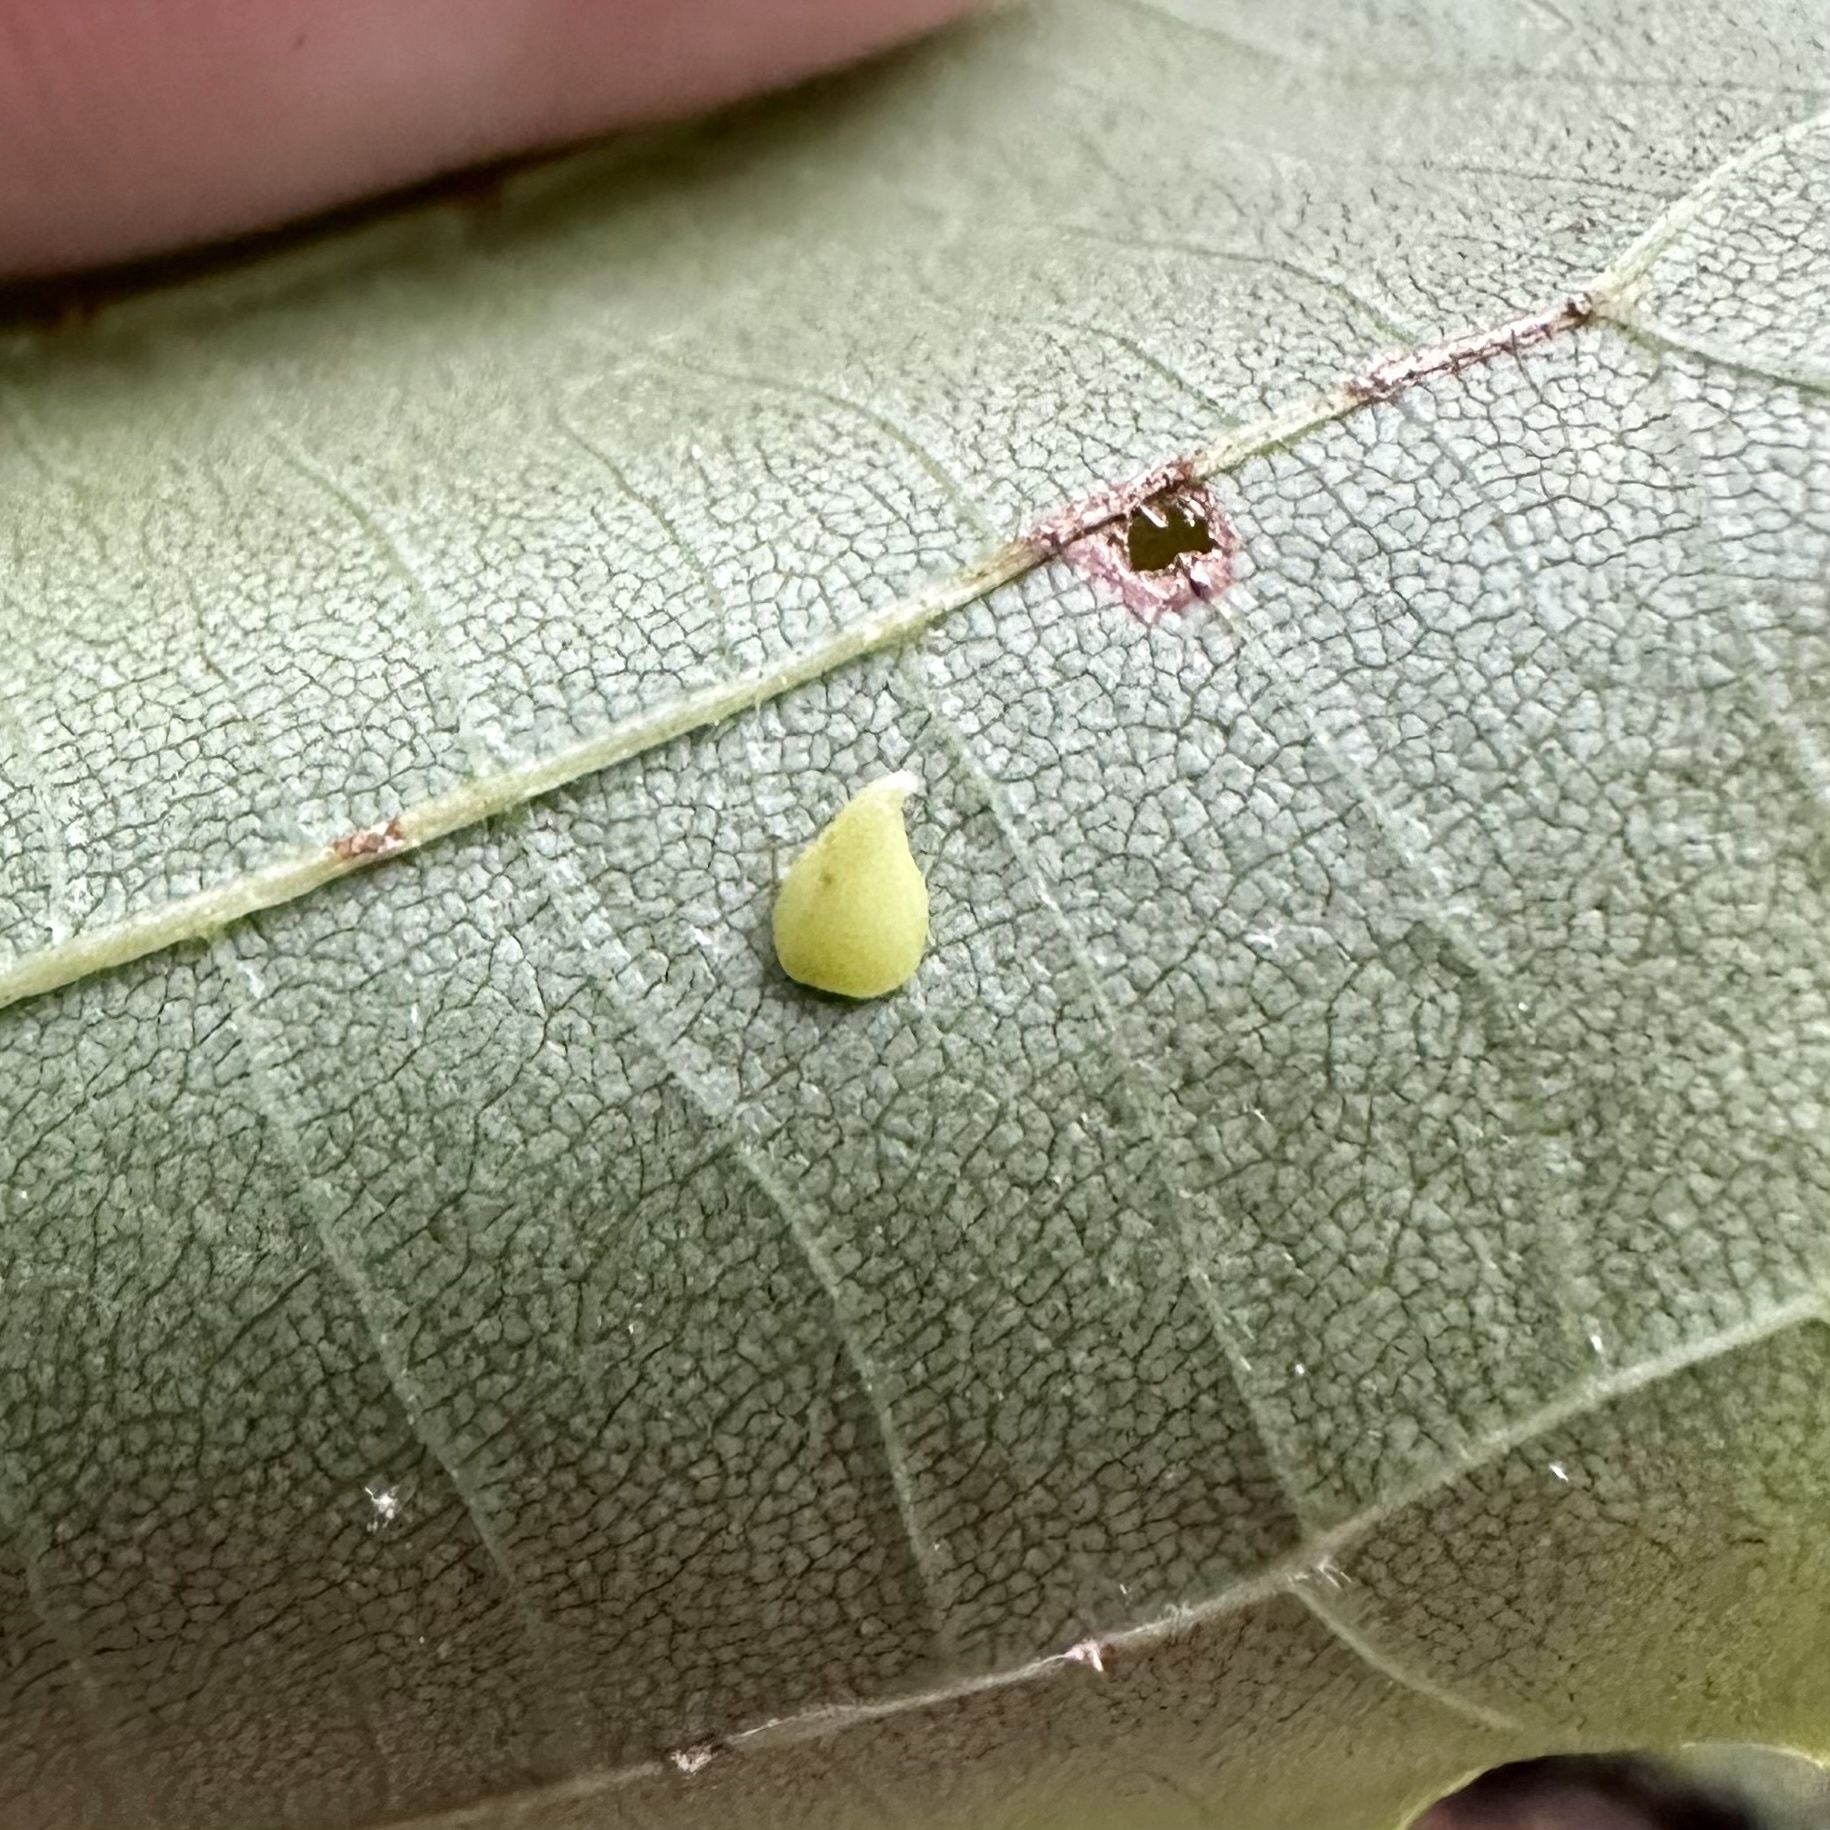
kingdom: Animalia
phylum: Arthropoda
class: Insecta
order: Diptera
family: Cecidomyiidae
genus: Caryomyia
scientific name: Caryomyia sanguinolenta
